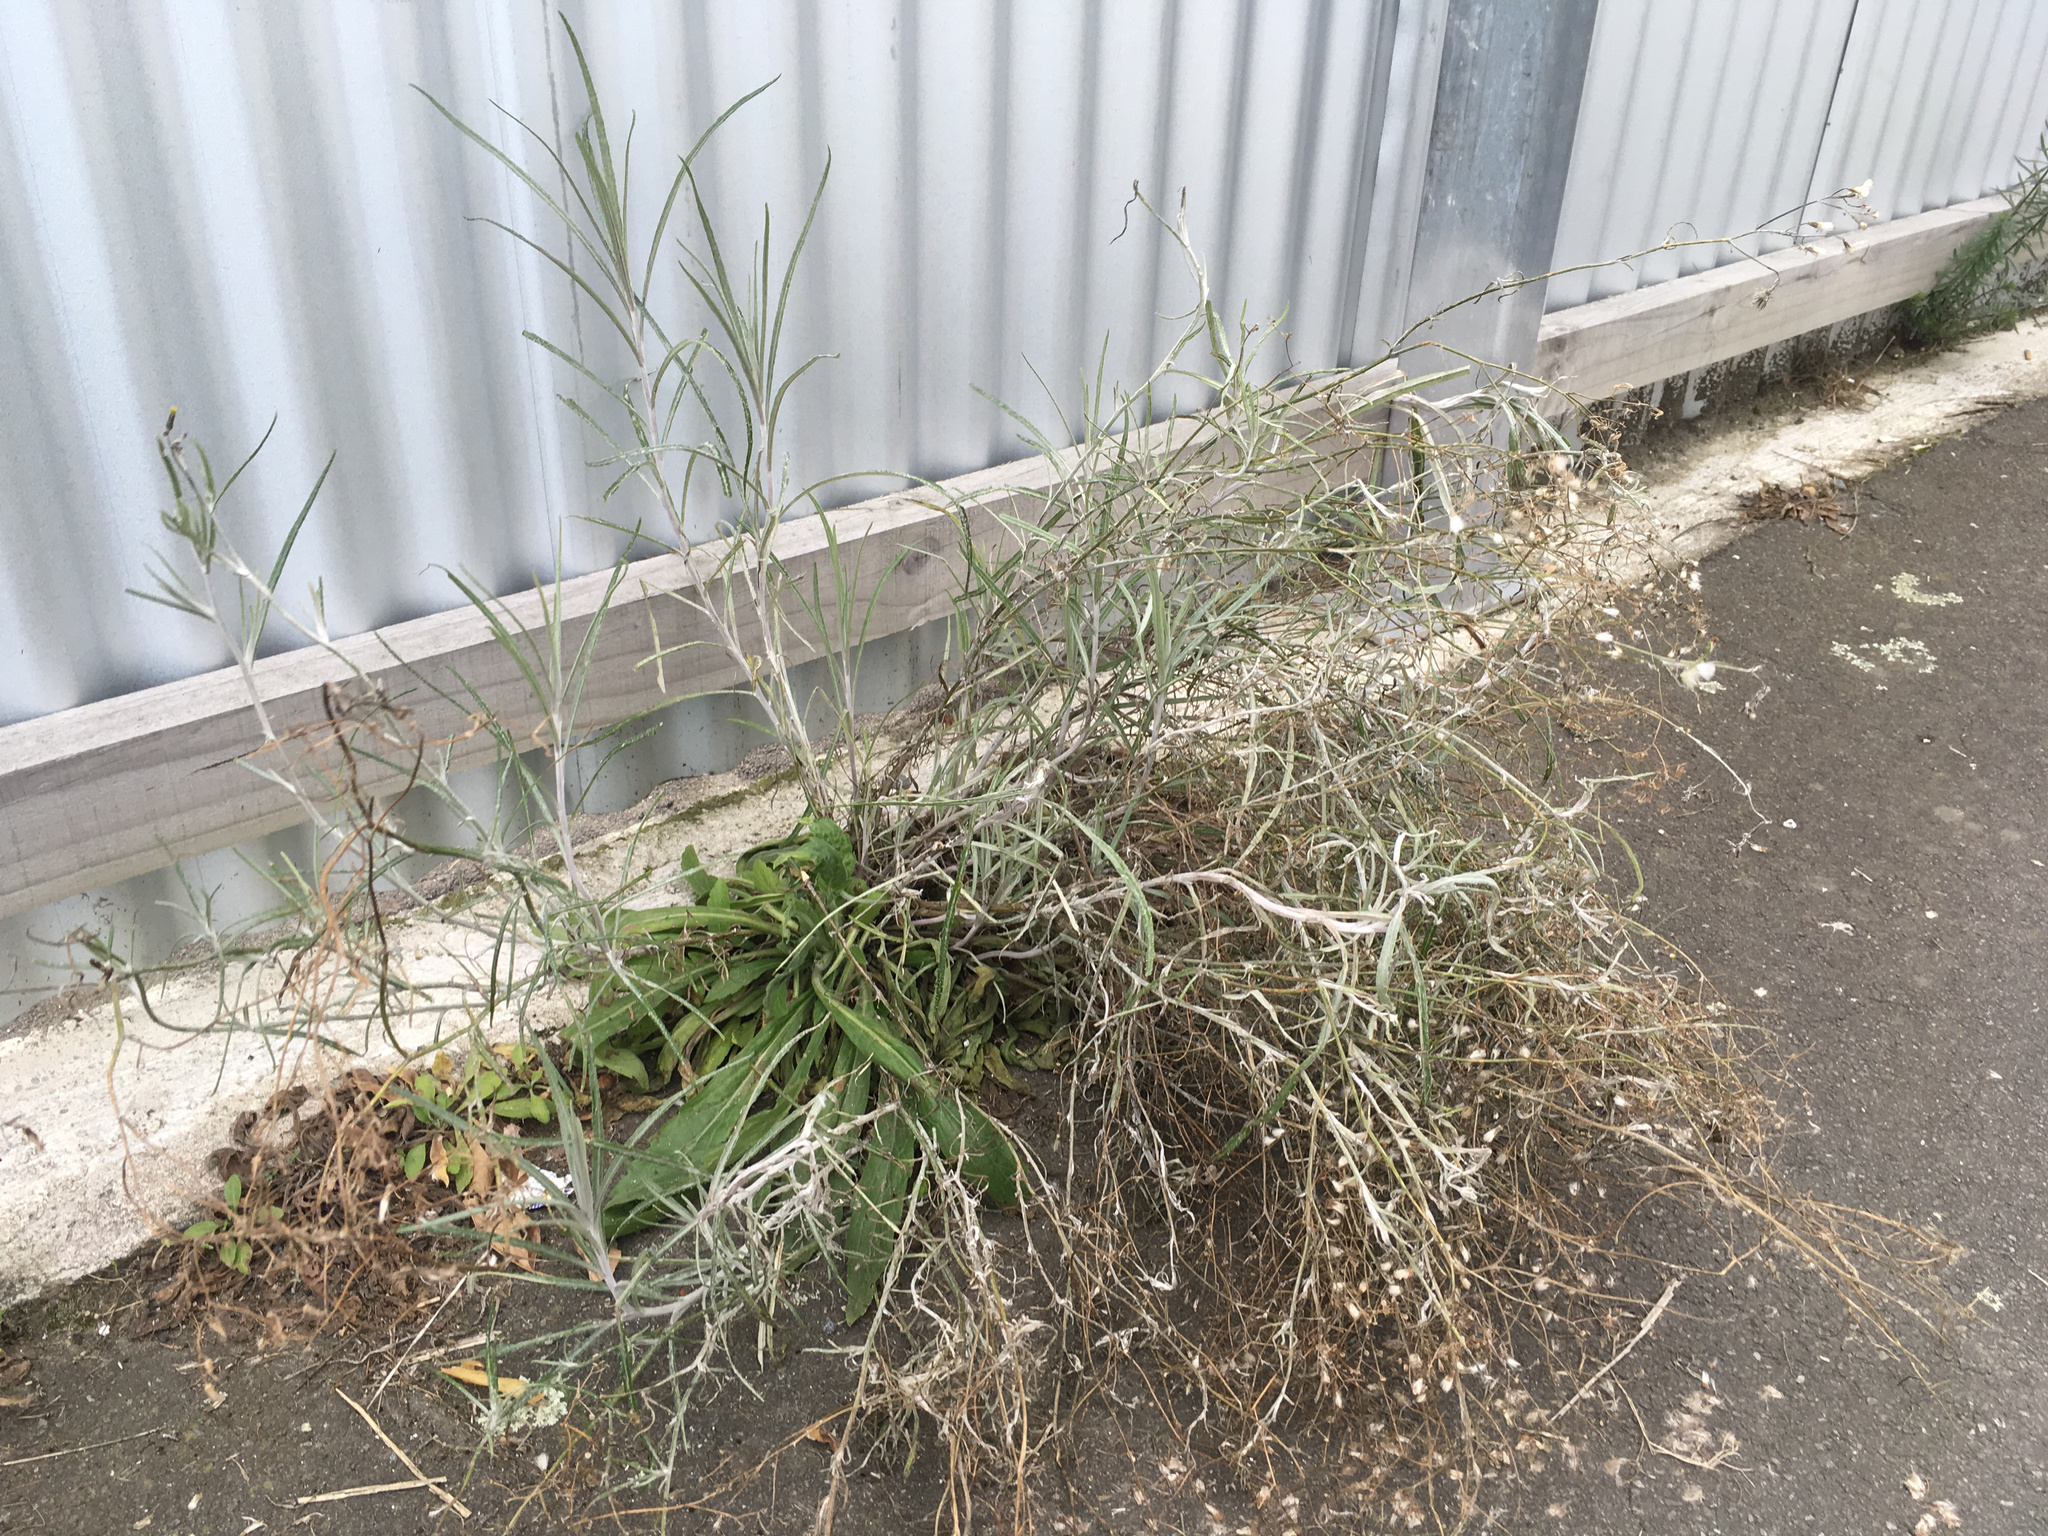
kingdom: Plantae
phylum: Tracheophyta
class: Magnoliopsida
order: Asterales
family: Asteraceae
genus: Senecio
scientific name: Senecio quadridentatus
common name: Cotton fireweed
